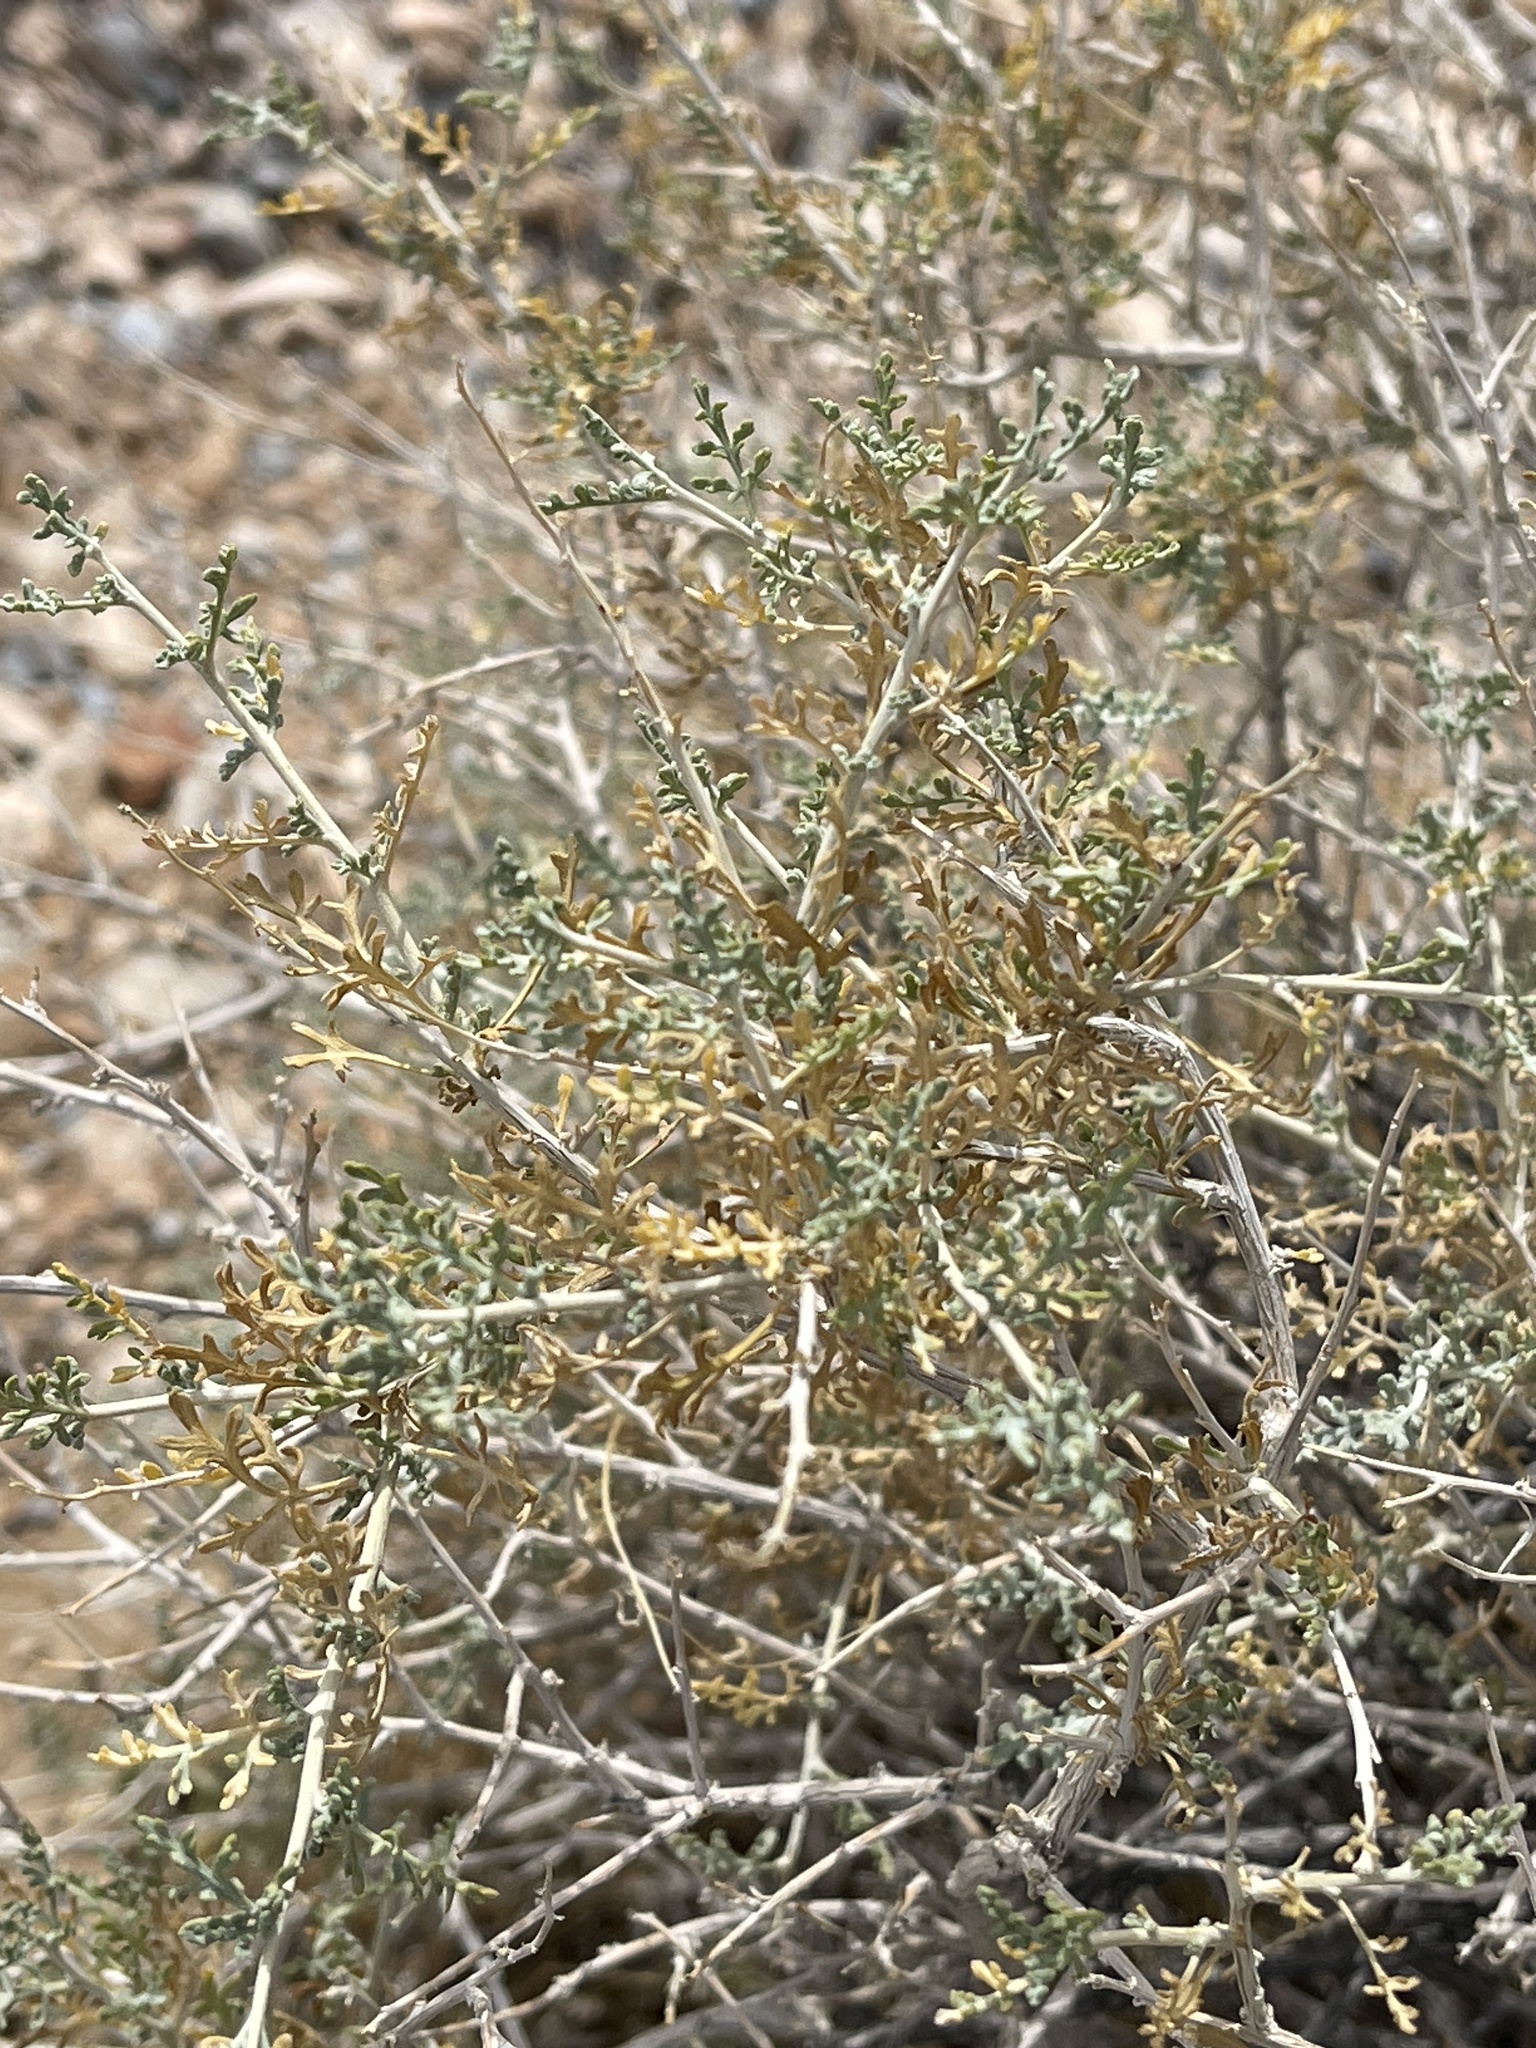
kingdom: Plantae
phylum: Tracheophyta
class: Magnoliopsida
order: Asterales
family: Asteraceae
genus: Ambrosia
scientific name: Ambrosia dumosa
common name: Bur-sage
